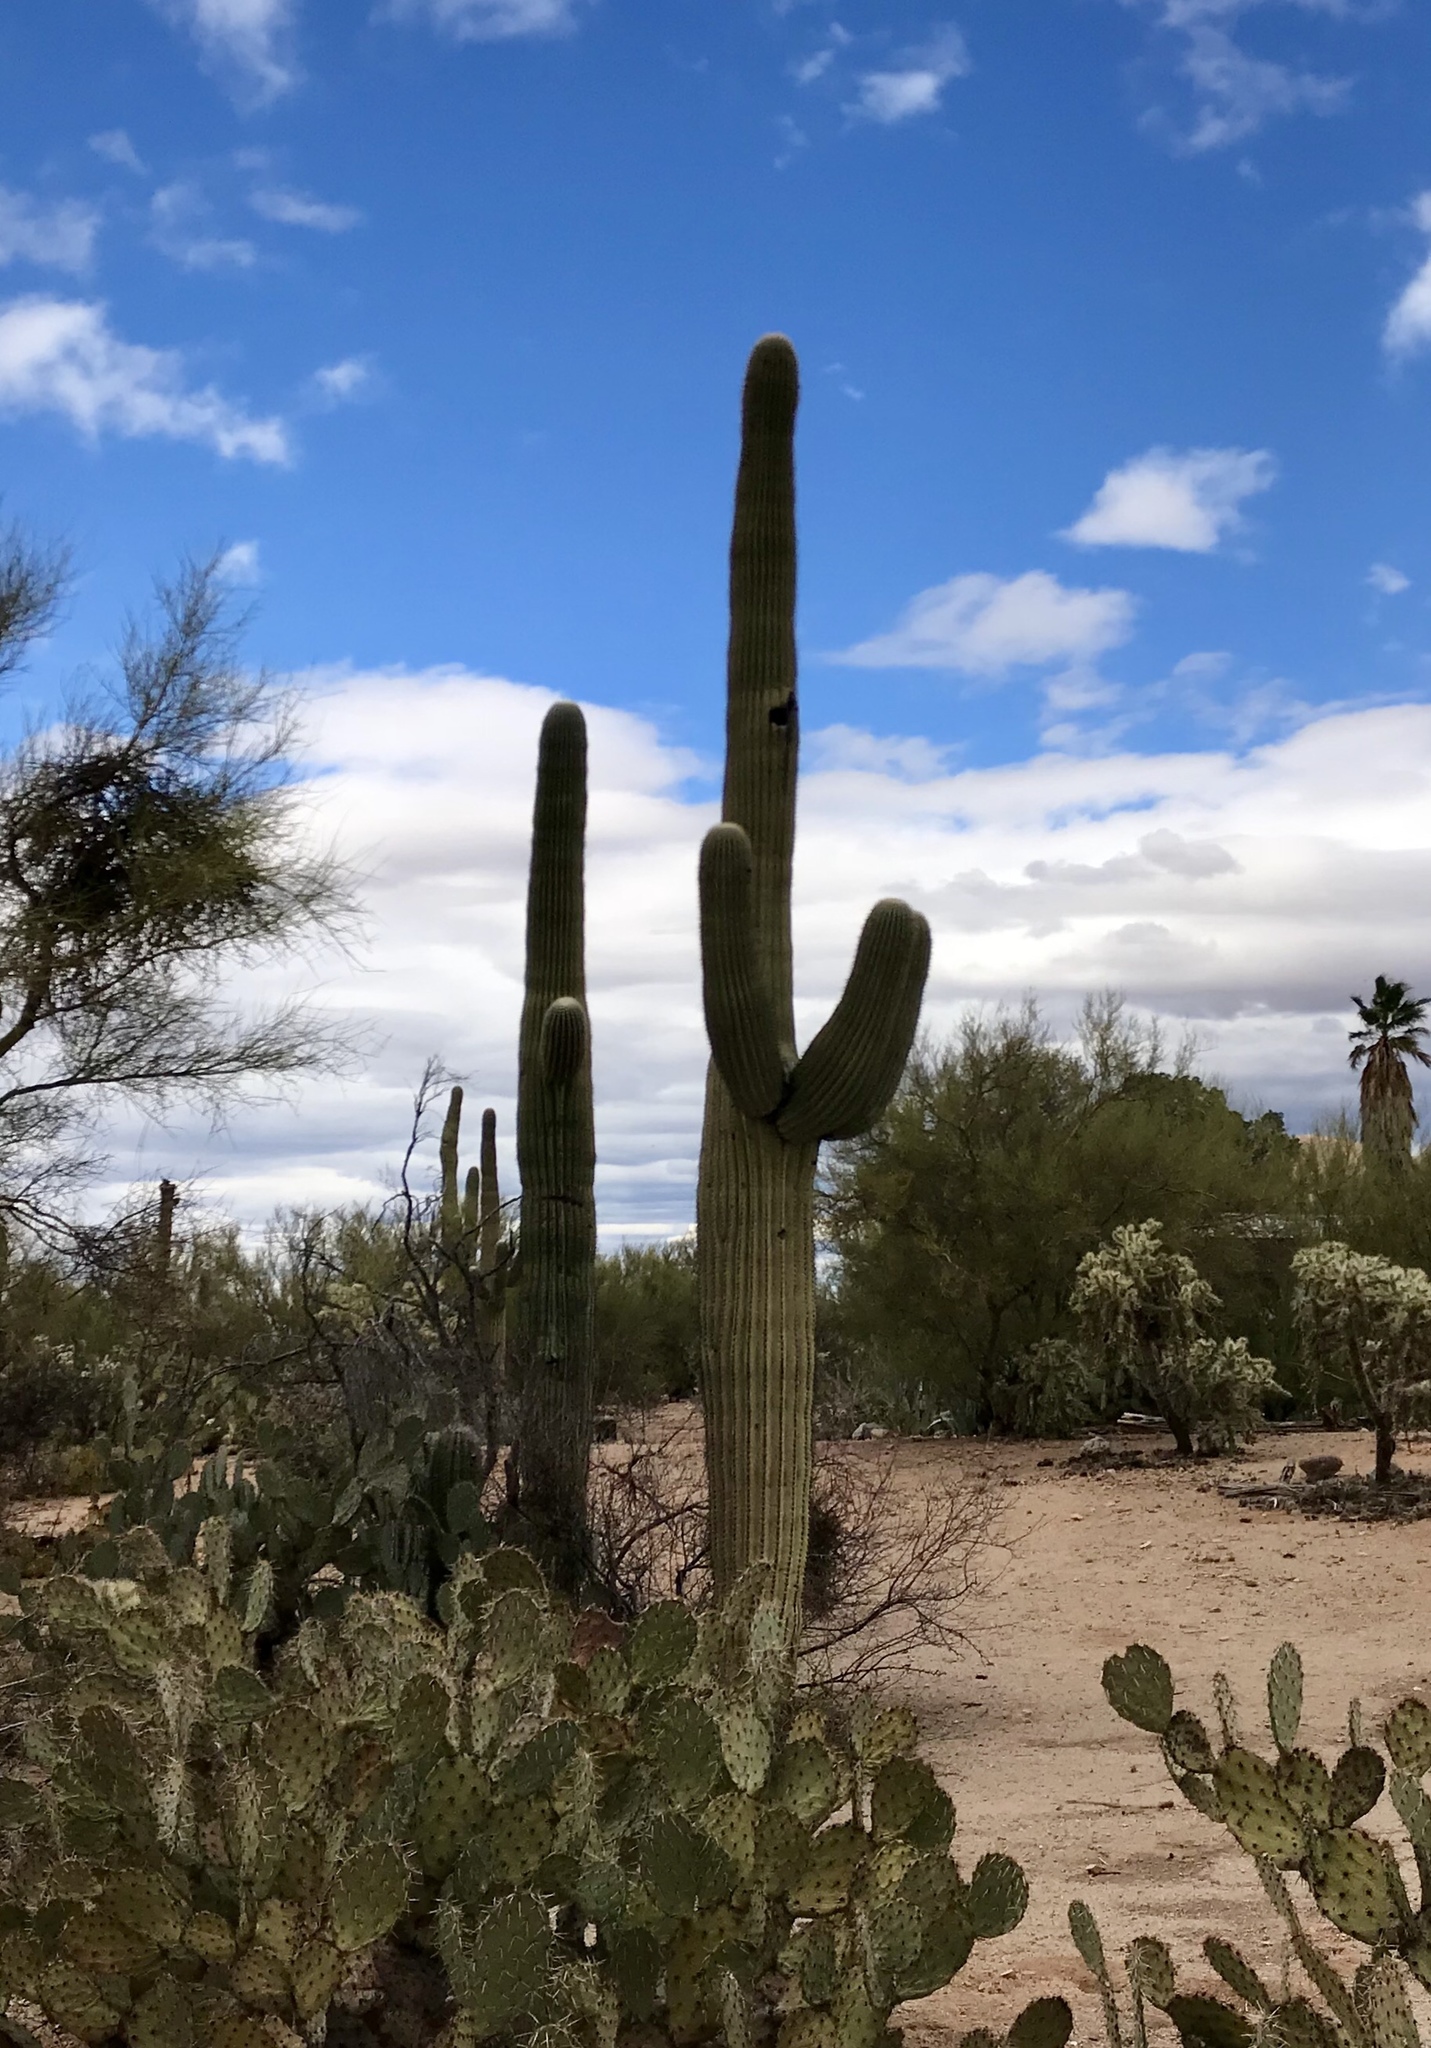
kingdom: Plantae
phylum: Tracheophyta
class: Magnoliopsida
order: Caryophyllales
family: Cactaceae
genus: Carnegiea
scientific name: Carnegiea gigantea
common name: Saguaro
